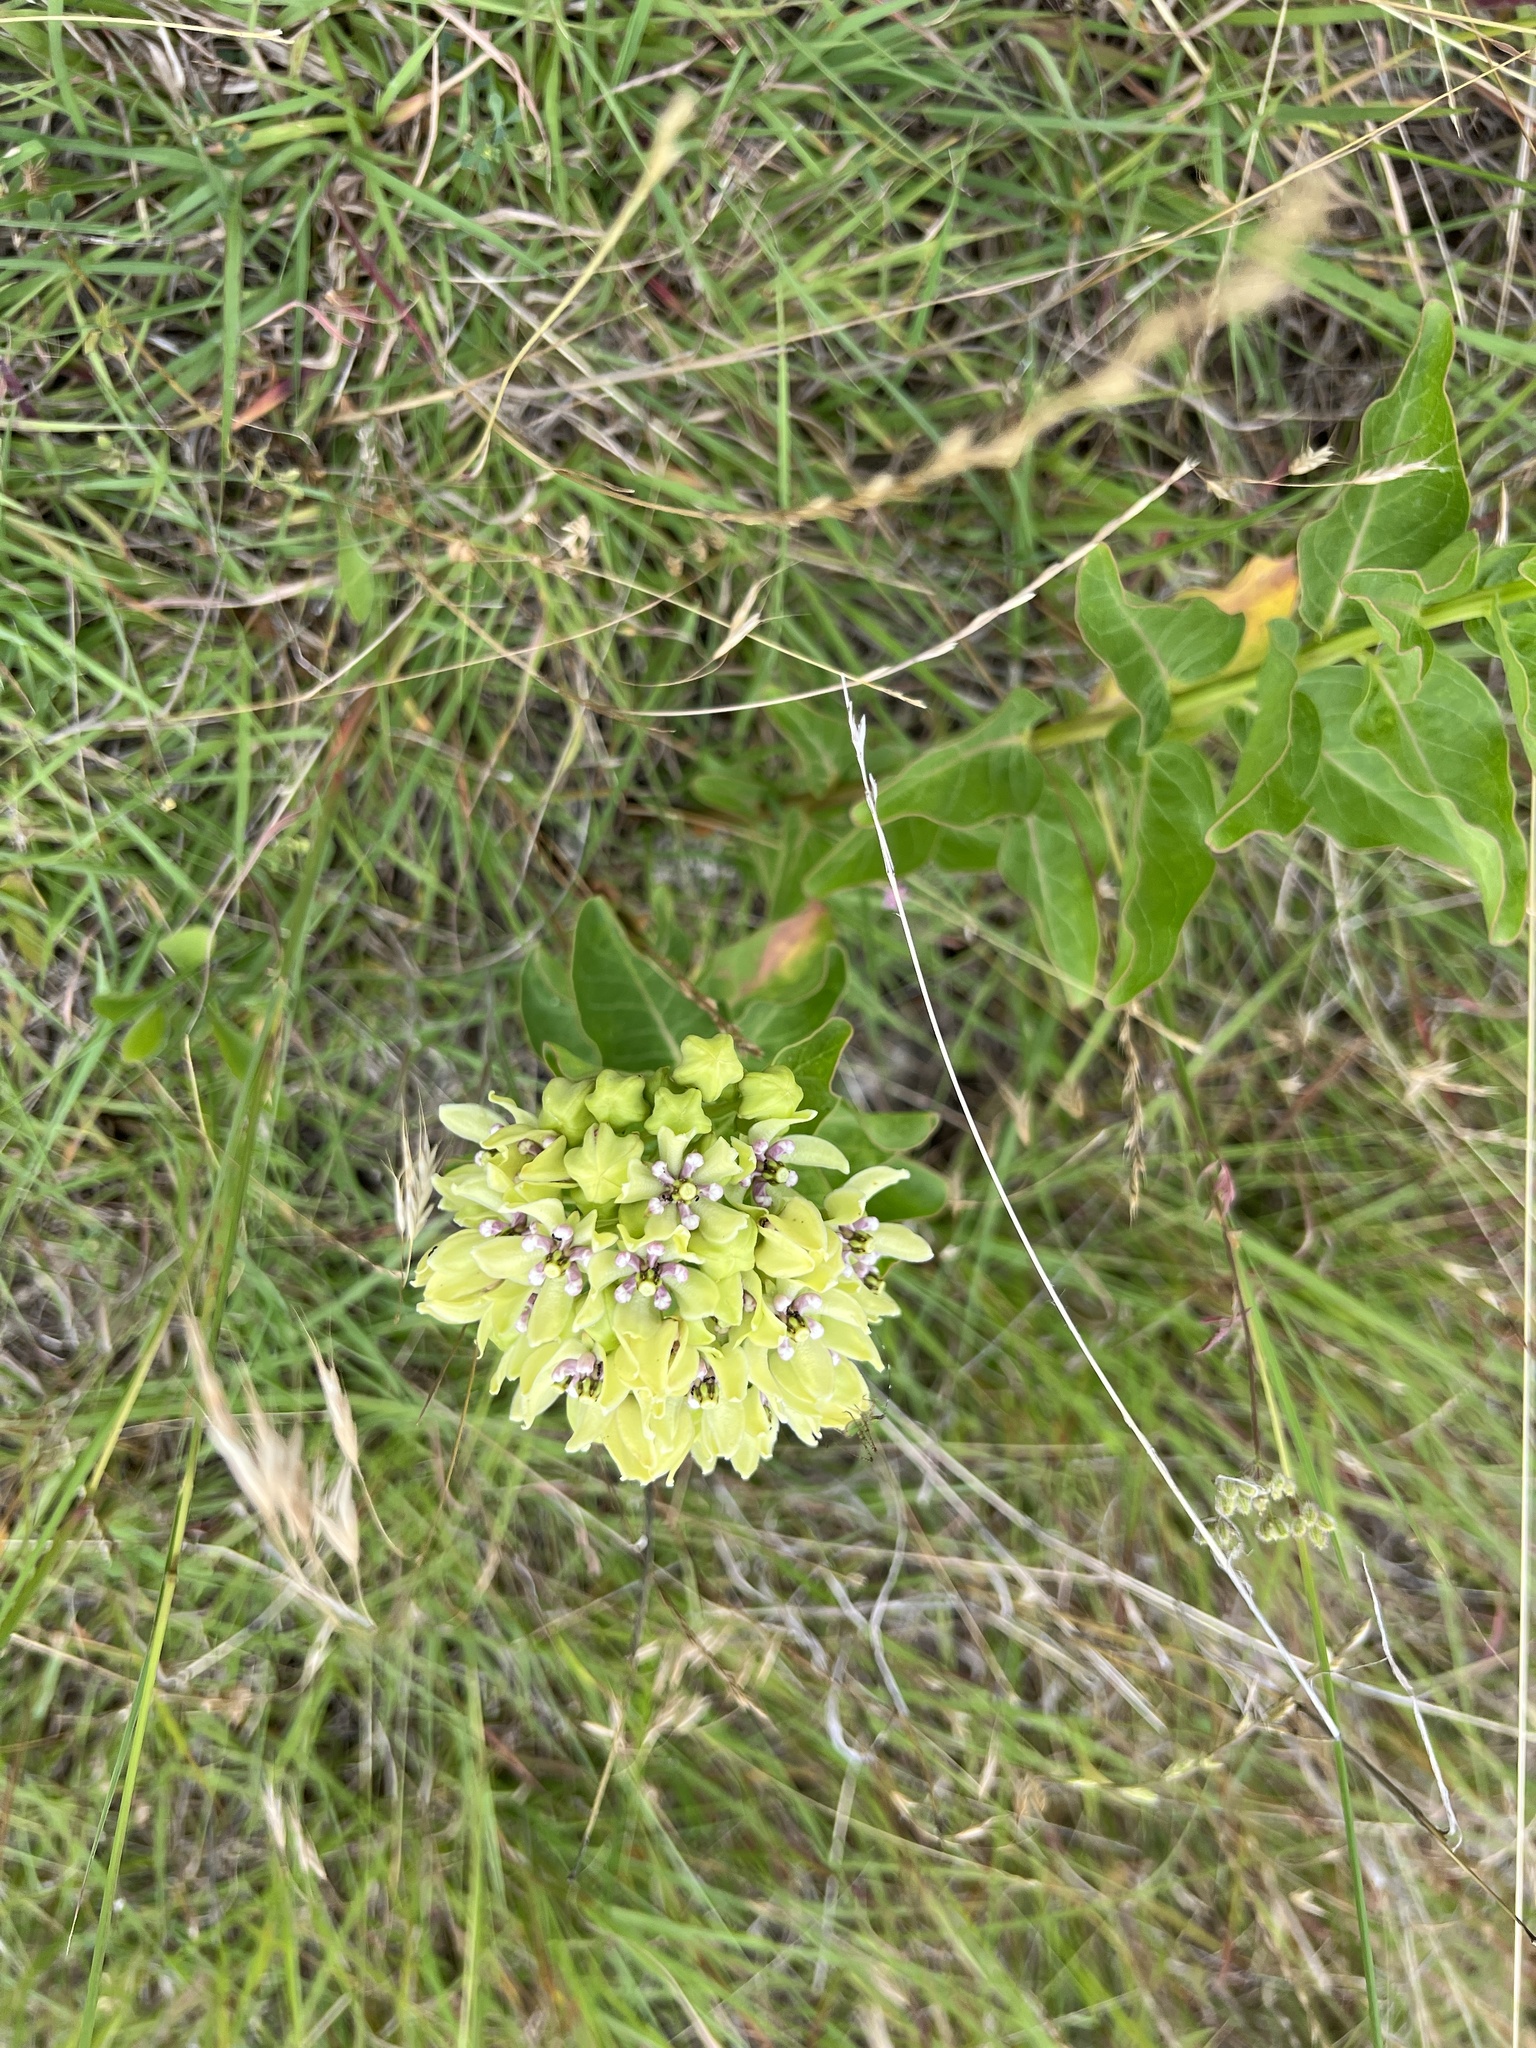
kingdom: Plantae
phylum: Tracheophyta
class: Magnoliopsida
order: Gentianales
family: Apocynaceae
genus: Asclepias
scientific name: Asclepias viridis
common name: Antelope-horns
